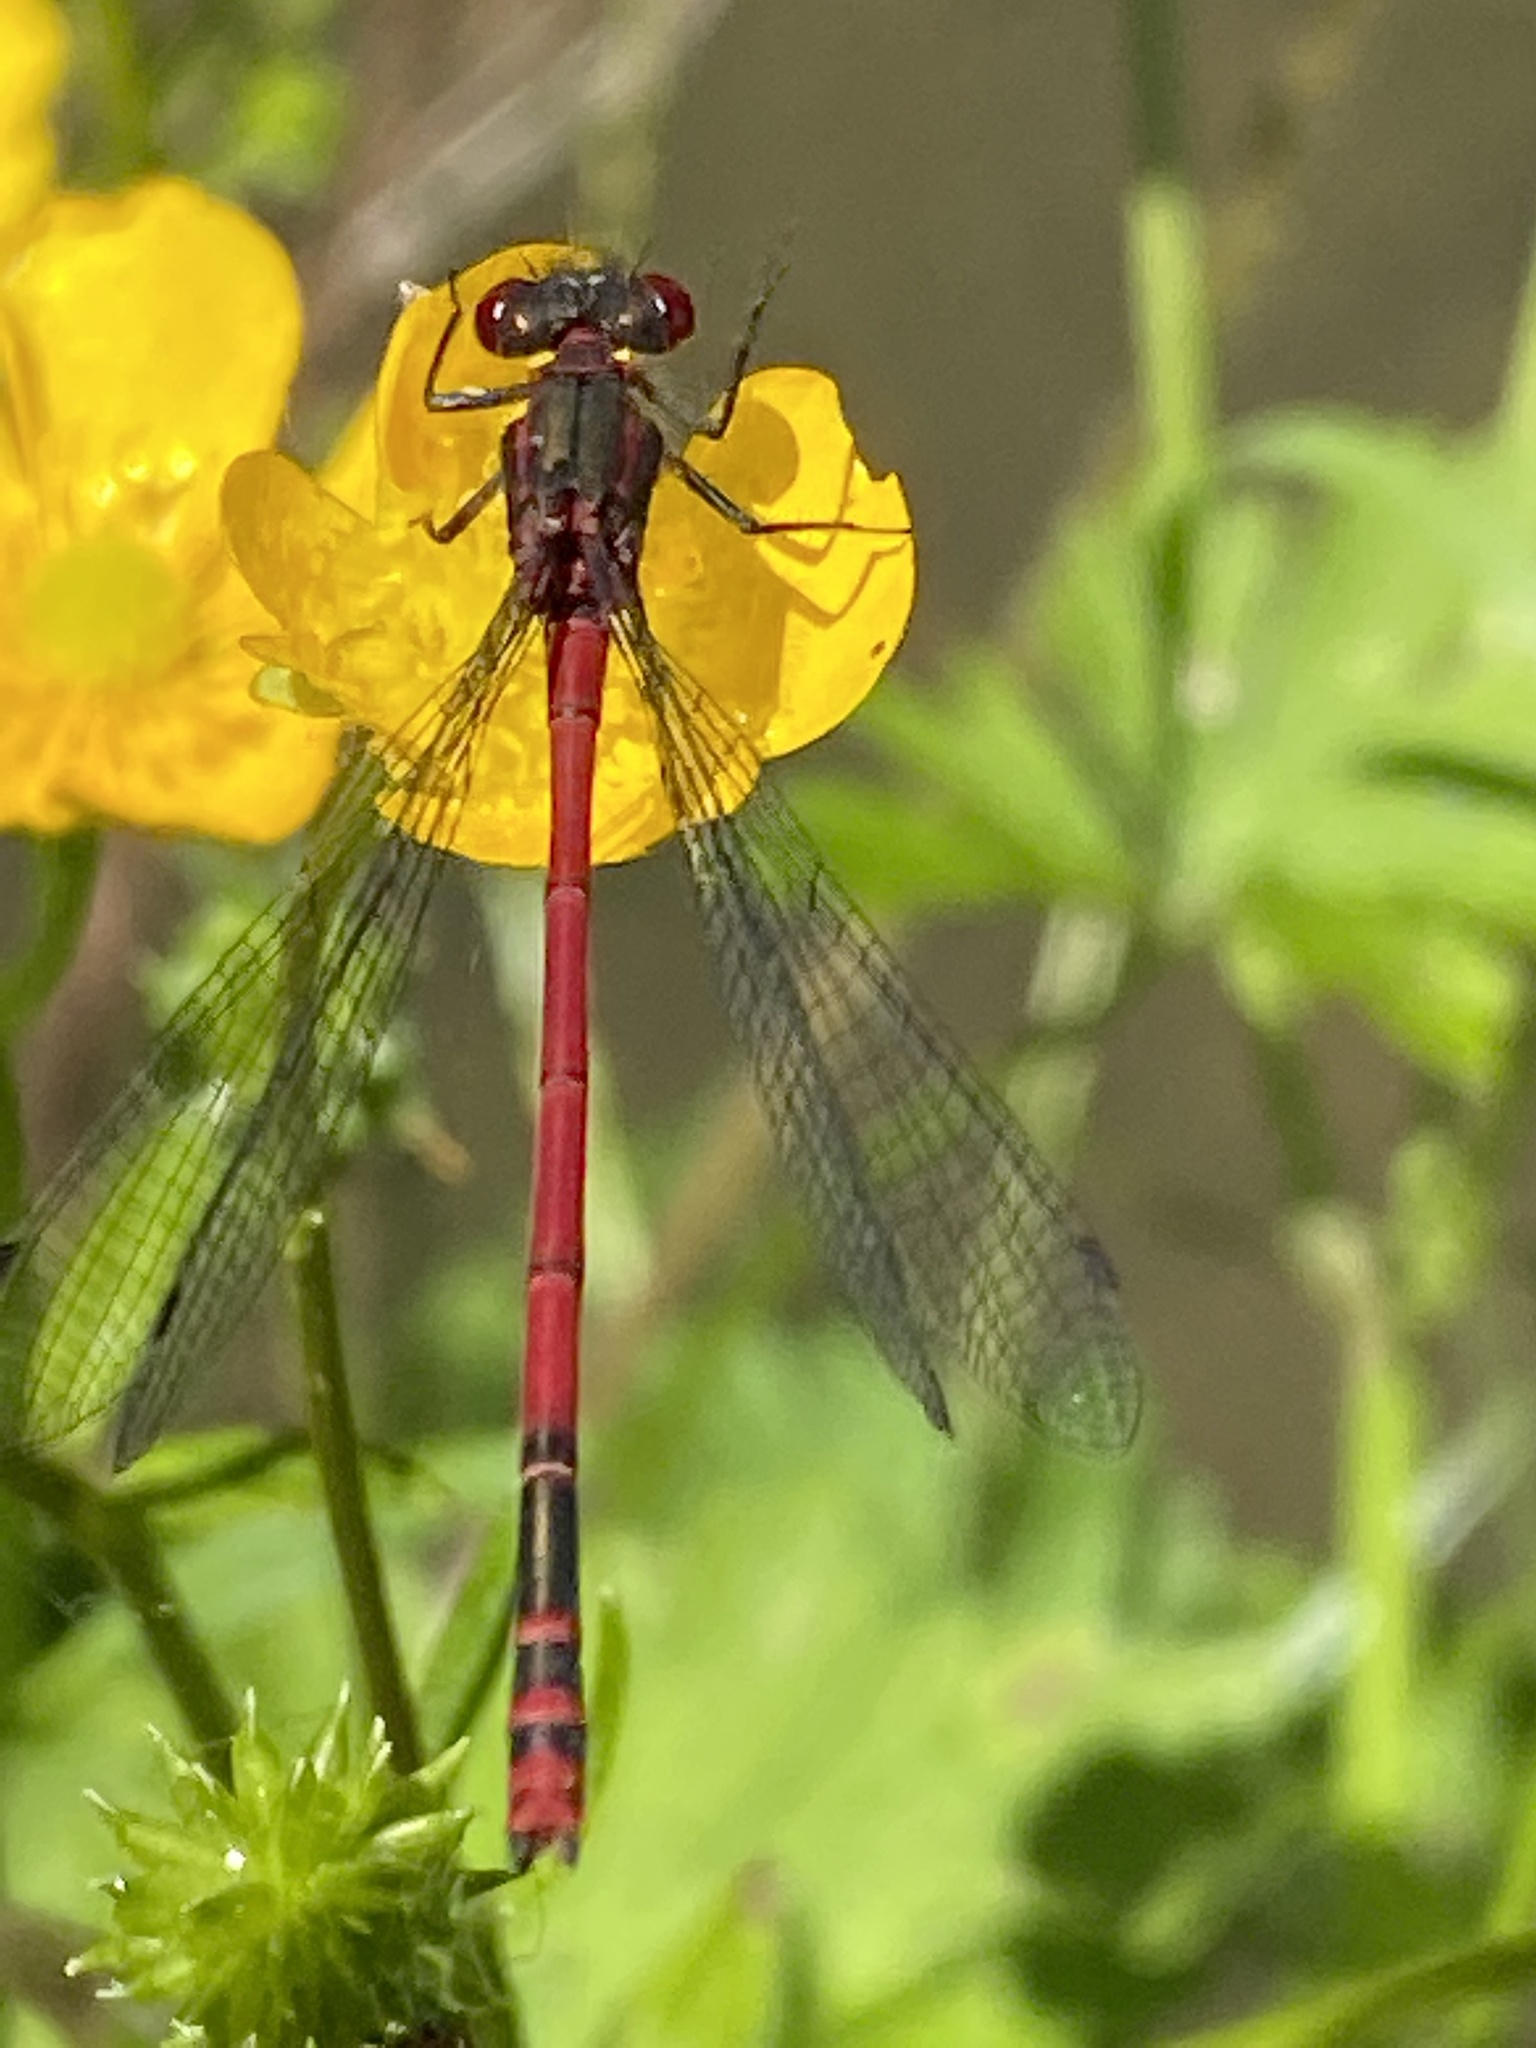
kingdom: Animalia
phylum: Arthropoda
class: Insecta
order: Odonata
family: Coenagrionidae
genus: Pyrrhosoma
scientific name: Pyrrhosoma nymphula
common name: Large red damsel
